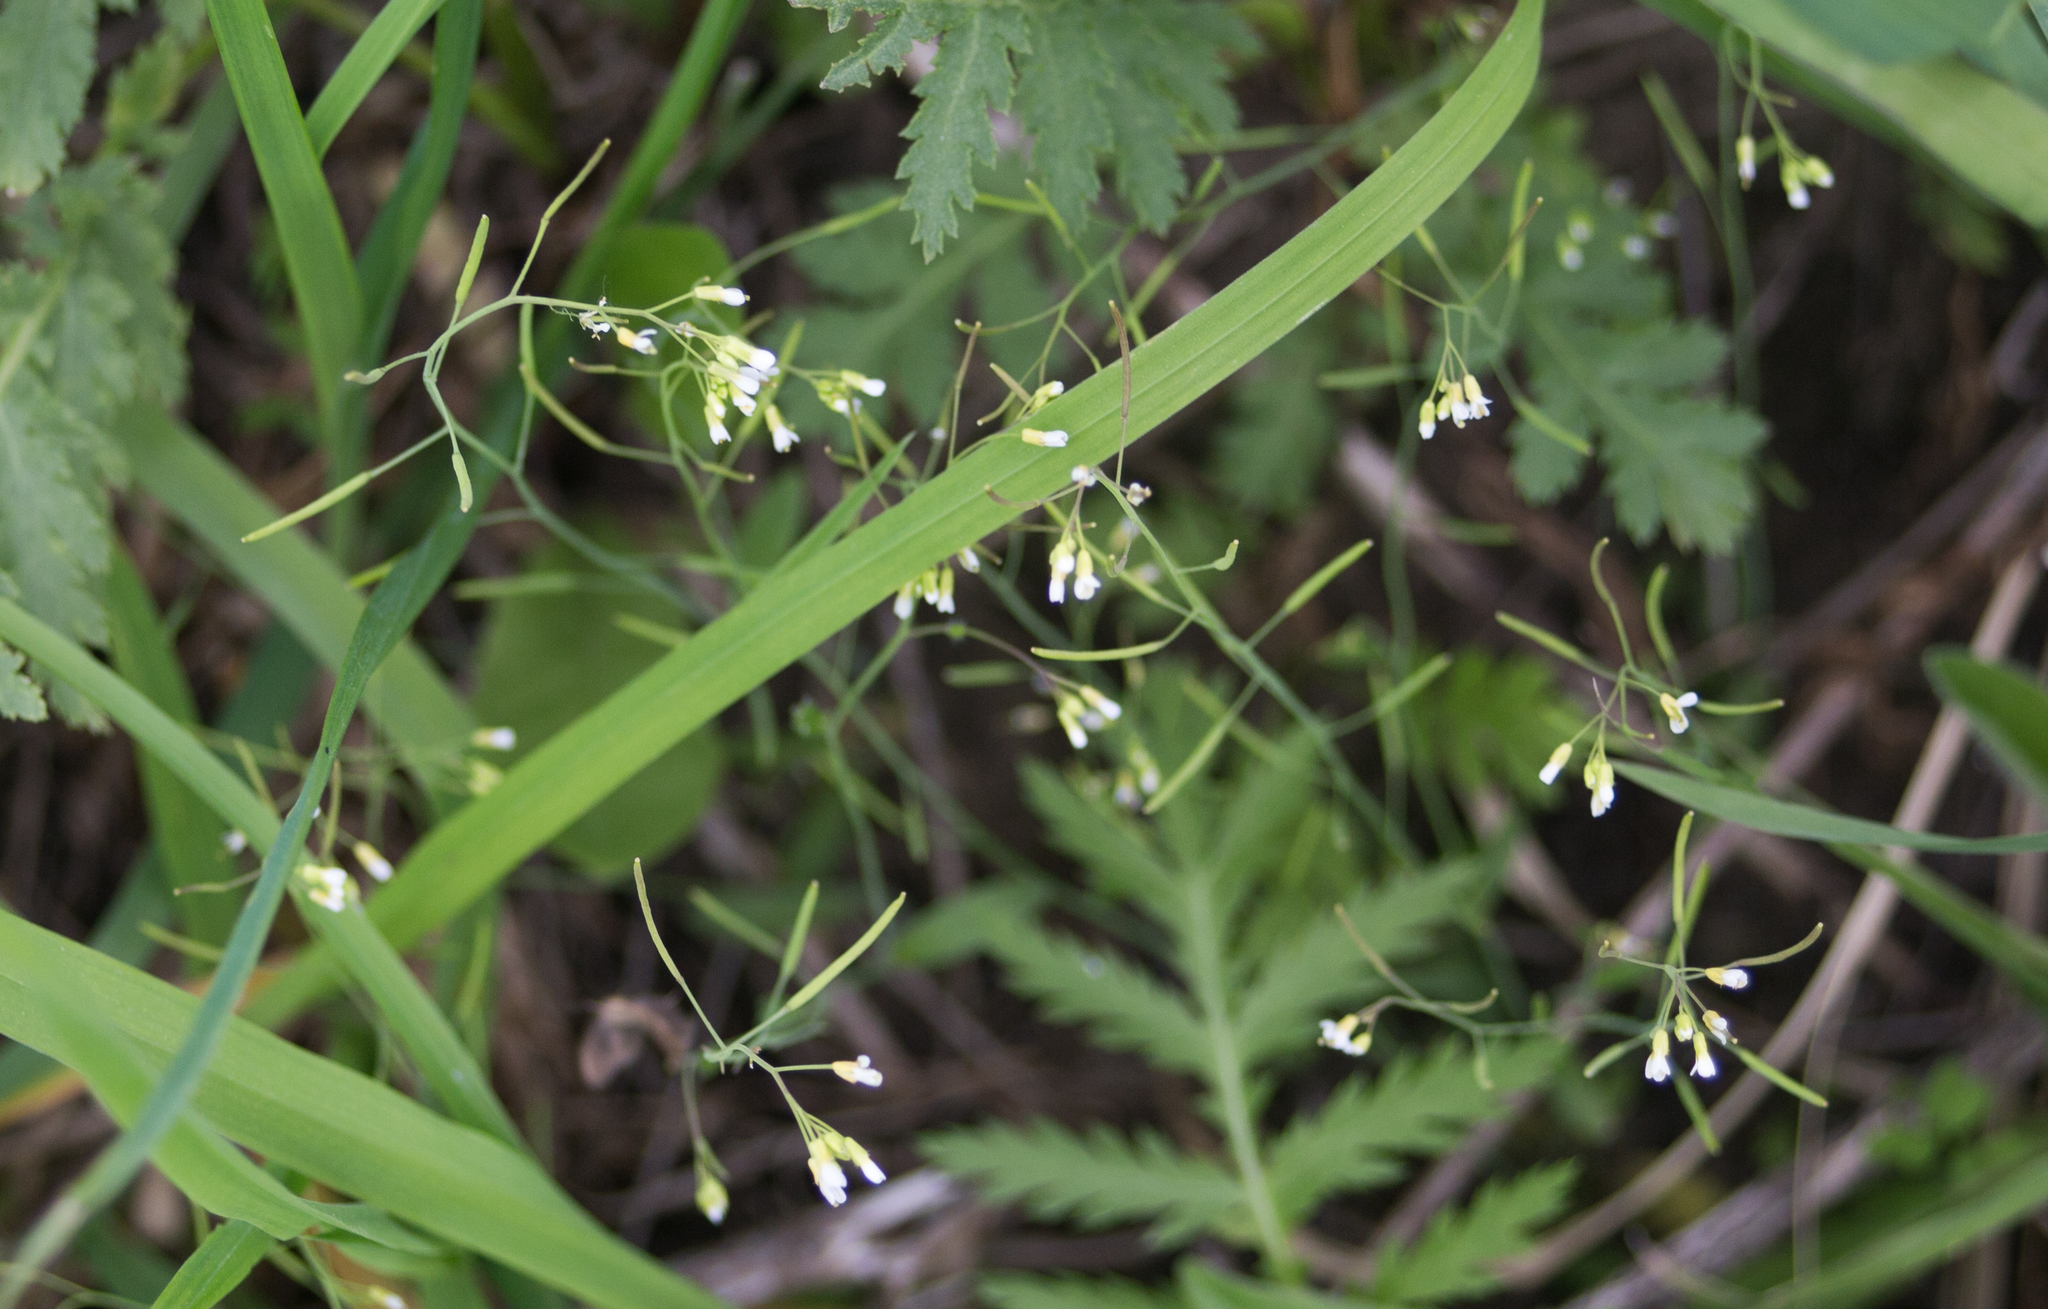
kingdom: Plantae
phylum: Tracheophyta
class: Magnoliopsida
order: Brassicales
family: Brassicaceae
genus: Arabidopsis
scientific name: Arabidopsis thaliana
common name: Thale cress
